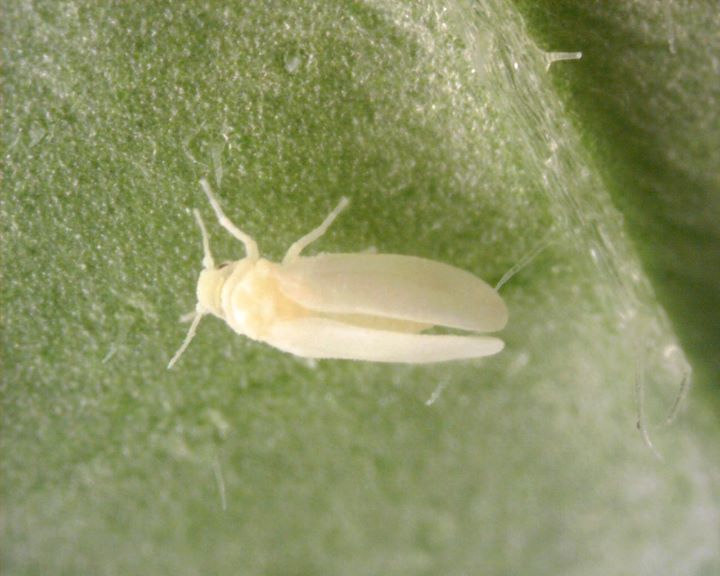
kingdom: Animalia
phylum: Arthropoda
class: Insecta
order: Hemiptera
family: Aleyrodidae
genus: Bemisia
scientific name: Bemisia tabaci
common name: Sweetpotato whitefly
